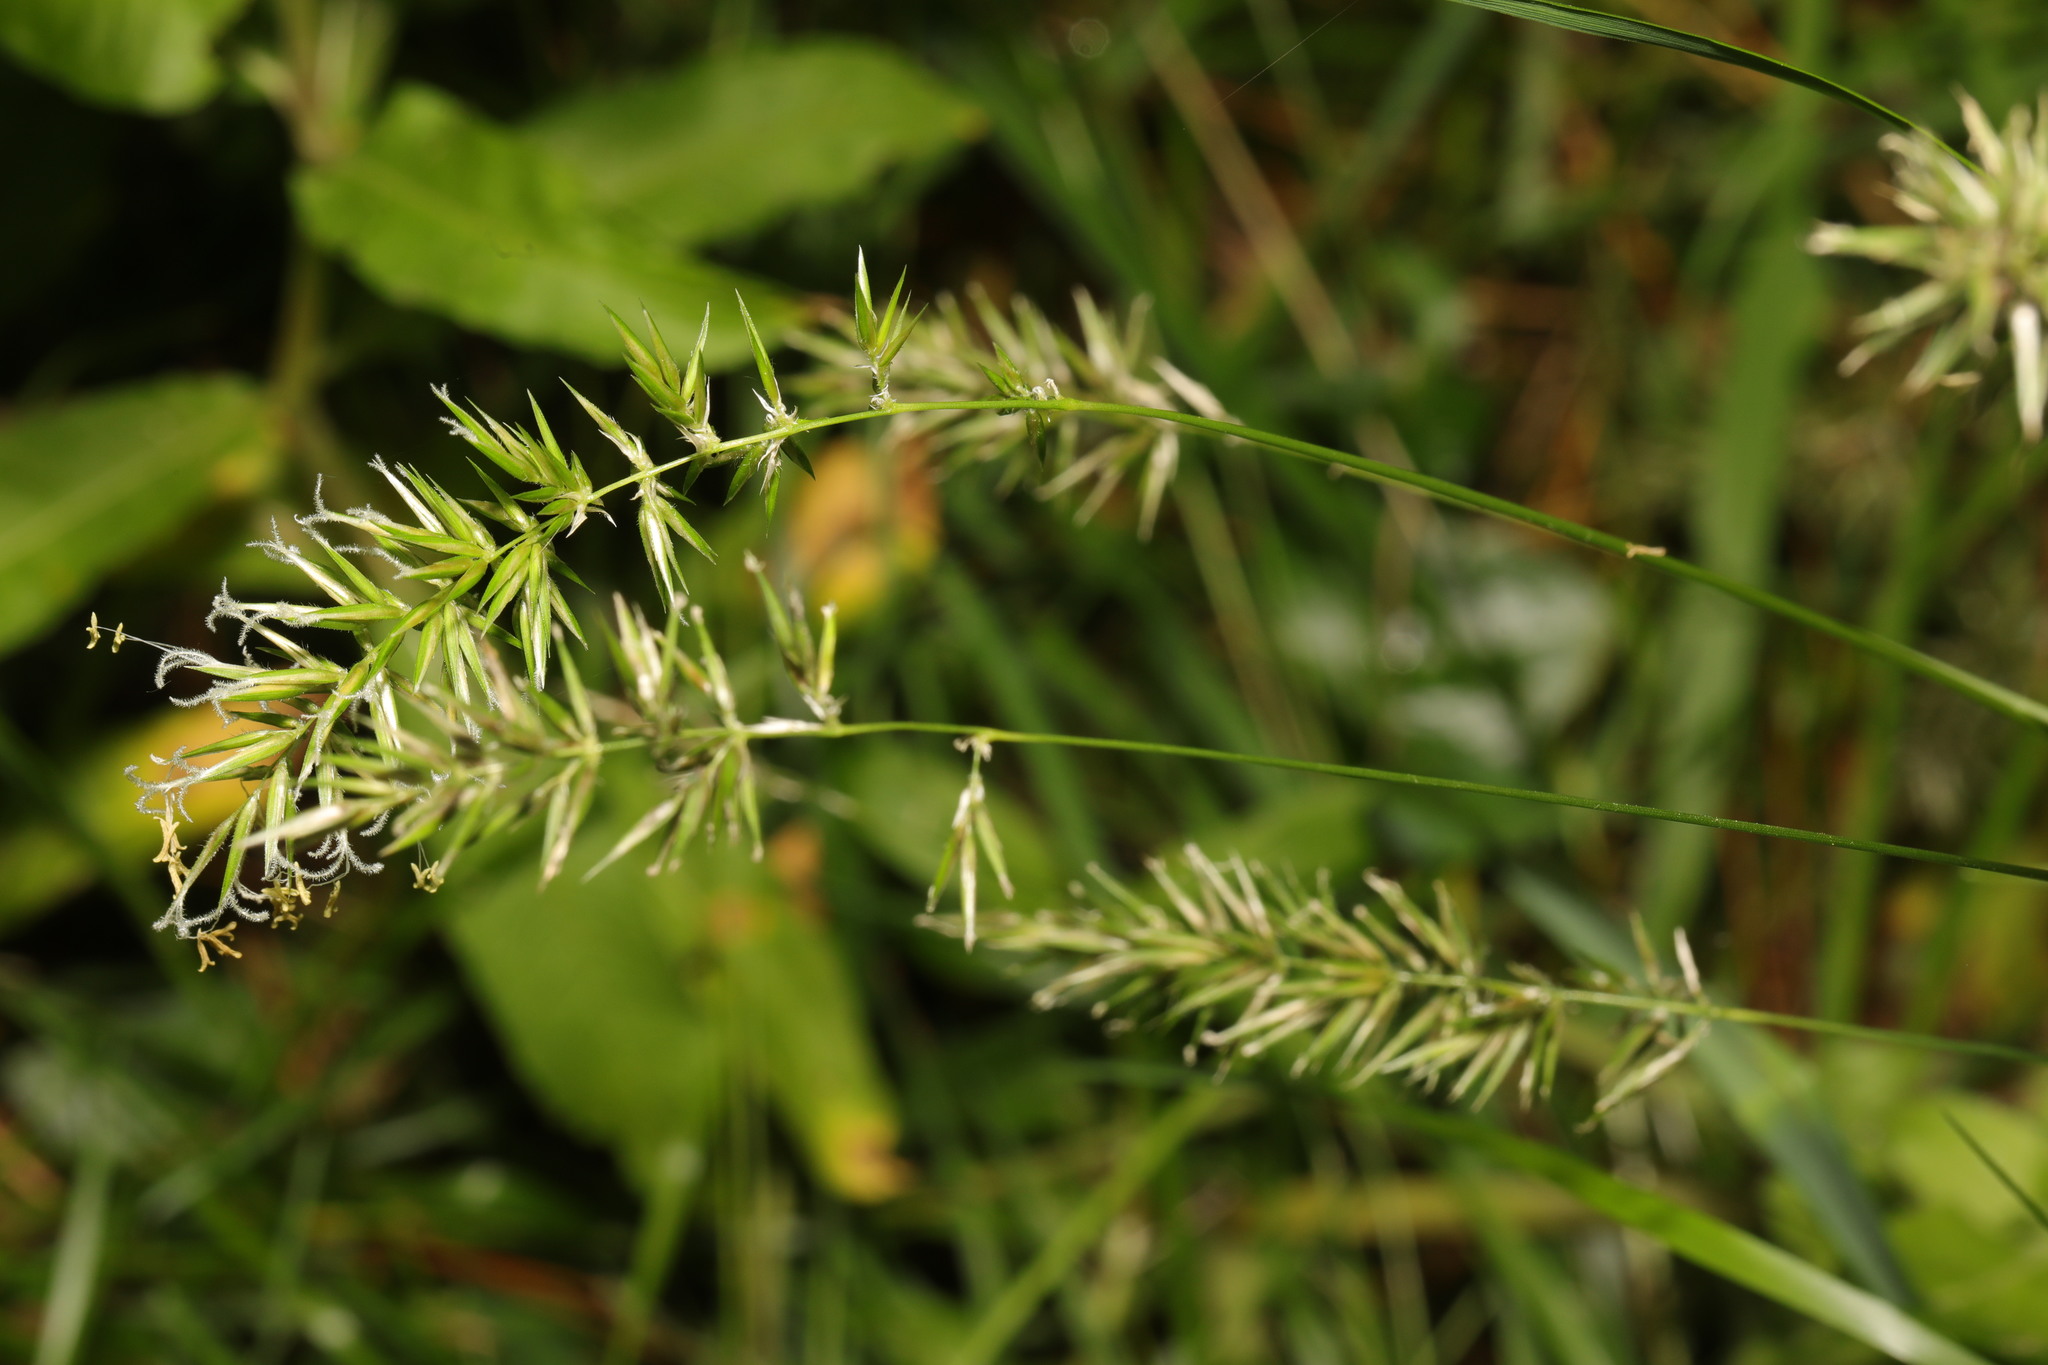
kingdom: Plantae
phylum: Tracheophyta
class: Liliopsida
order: Poales
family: Poaceae
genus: Anthoxanthum
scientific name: Anthoxanthum odoratum
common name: Sweet vernalgrass
